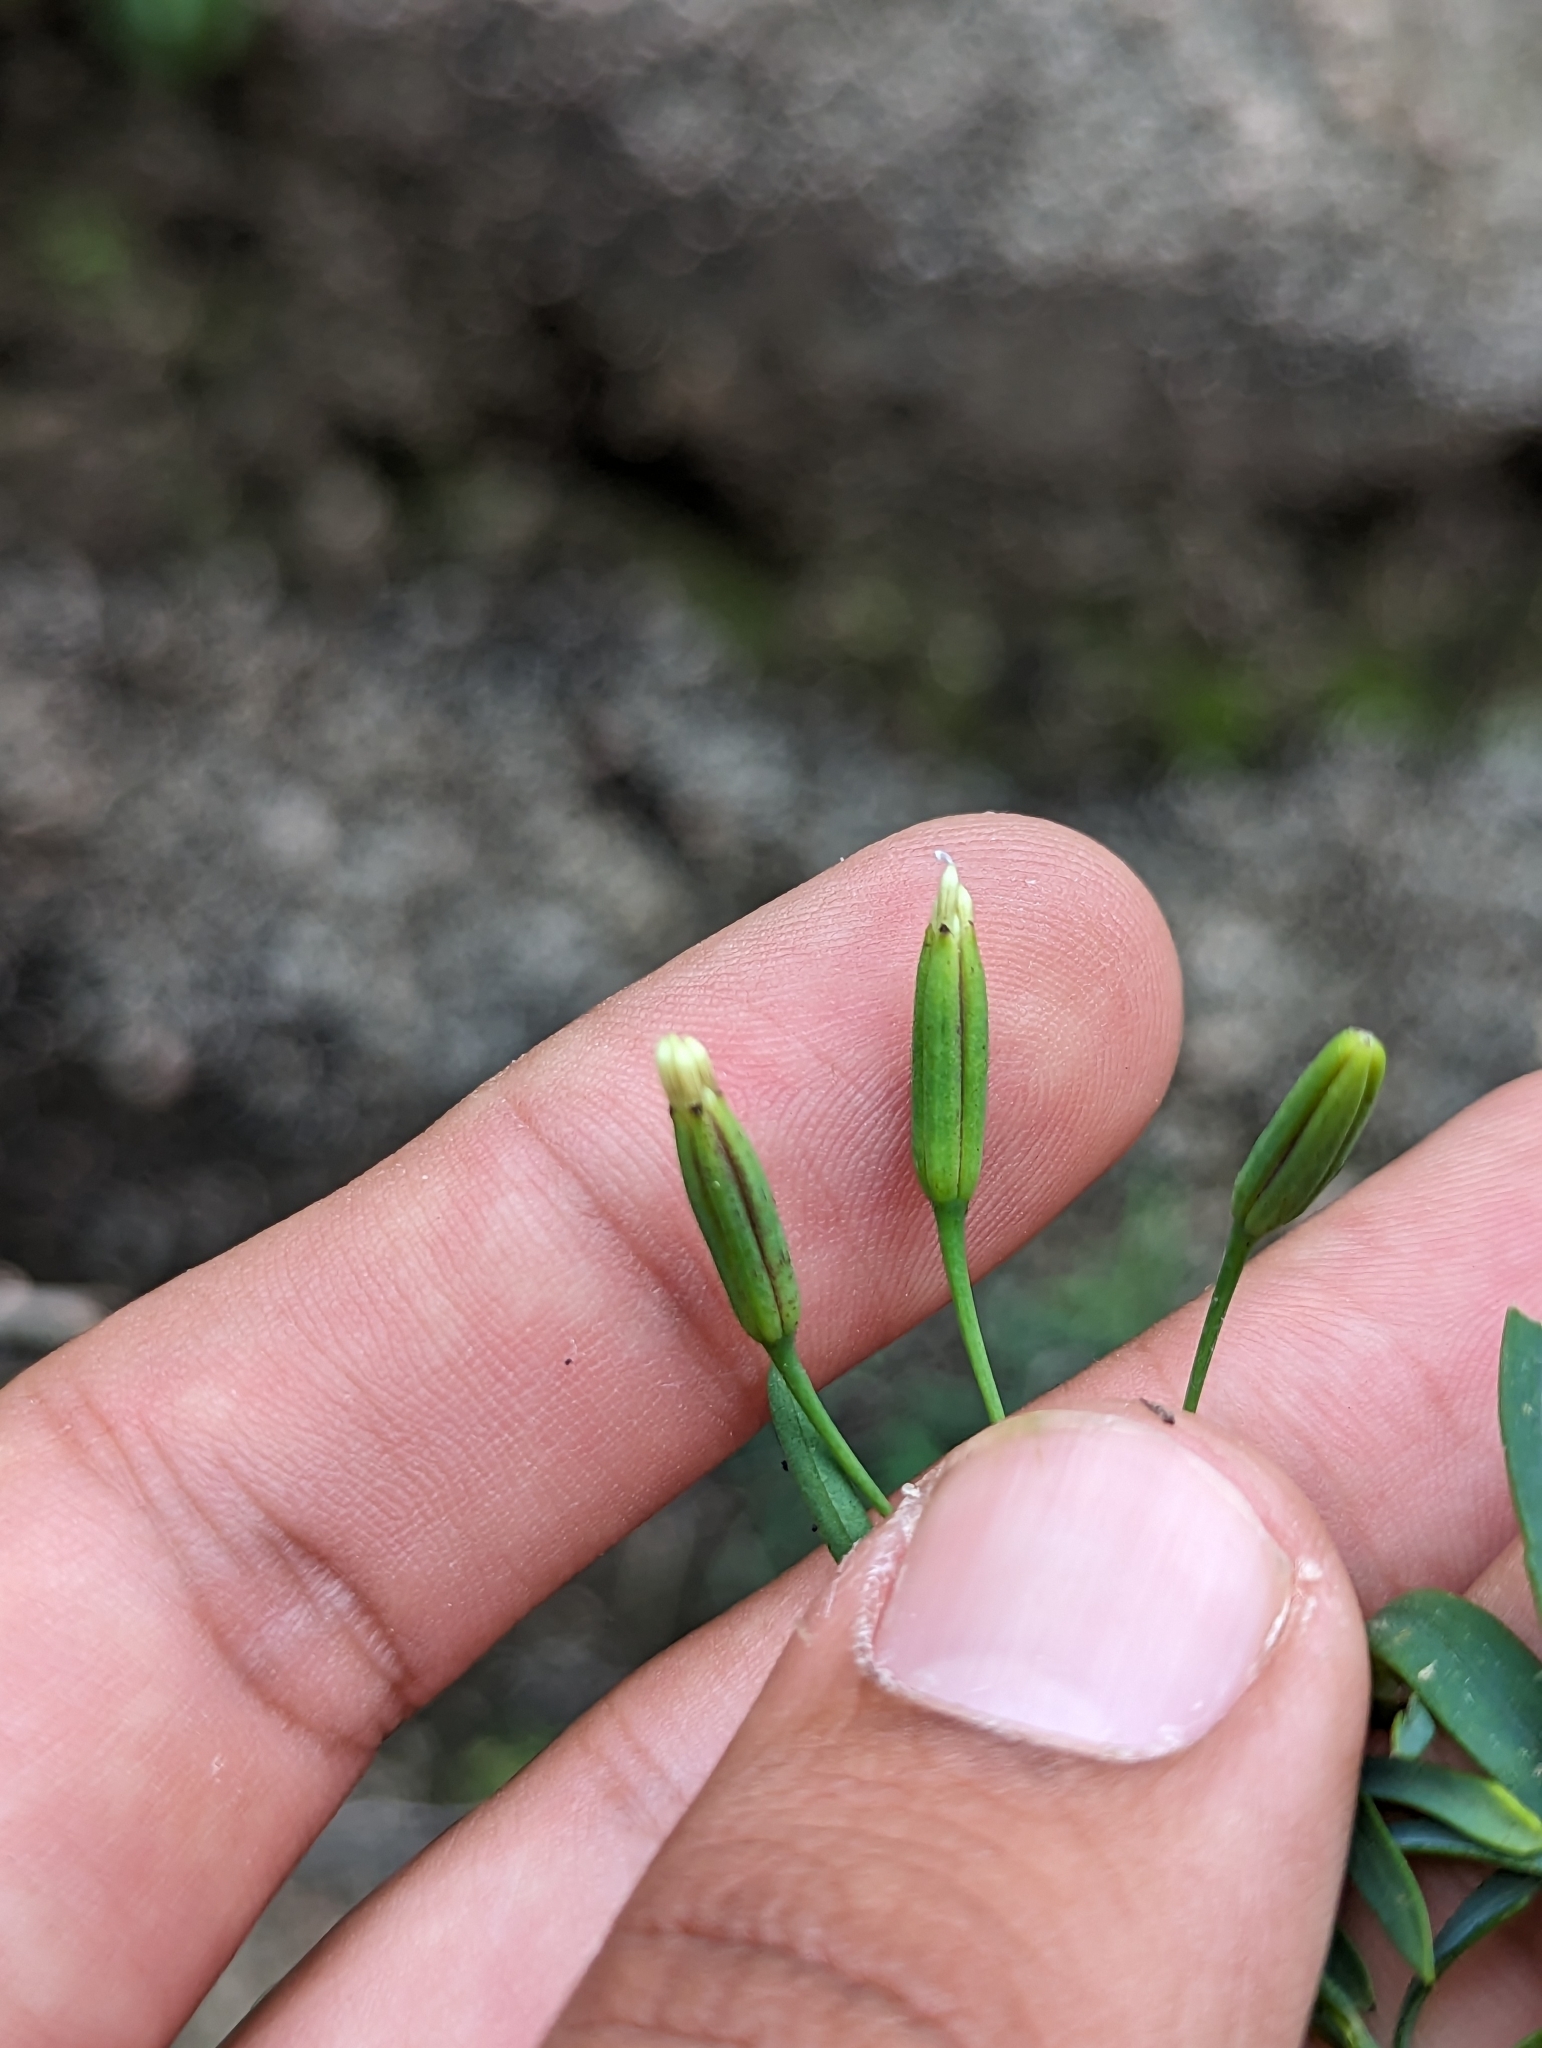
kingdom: Plantae
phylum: Tracheophyta
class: Magnoliopsida
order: Asterales
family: Asteraceae
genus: Porophyllum
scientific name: Porophyllum gracile
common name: Odora
